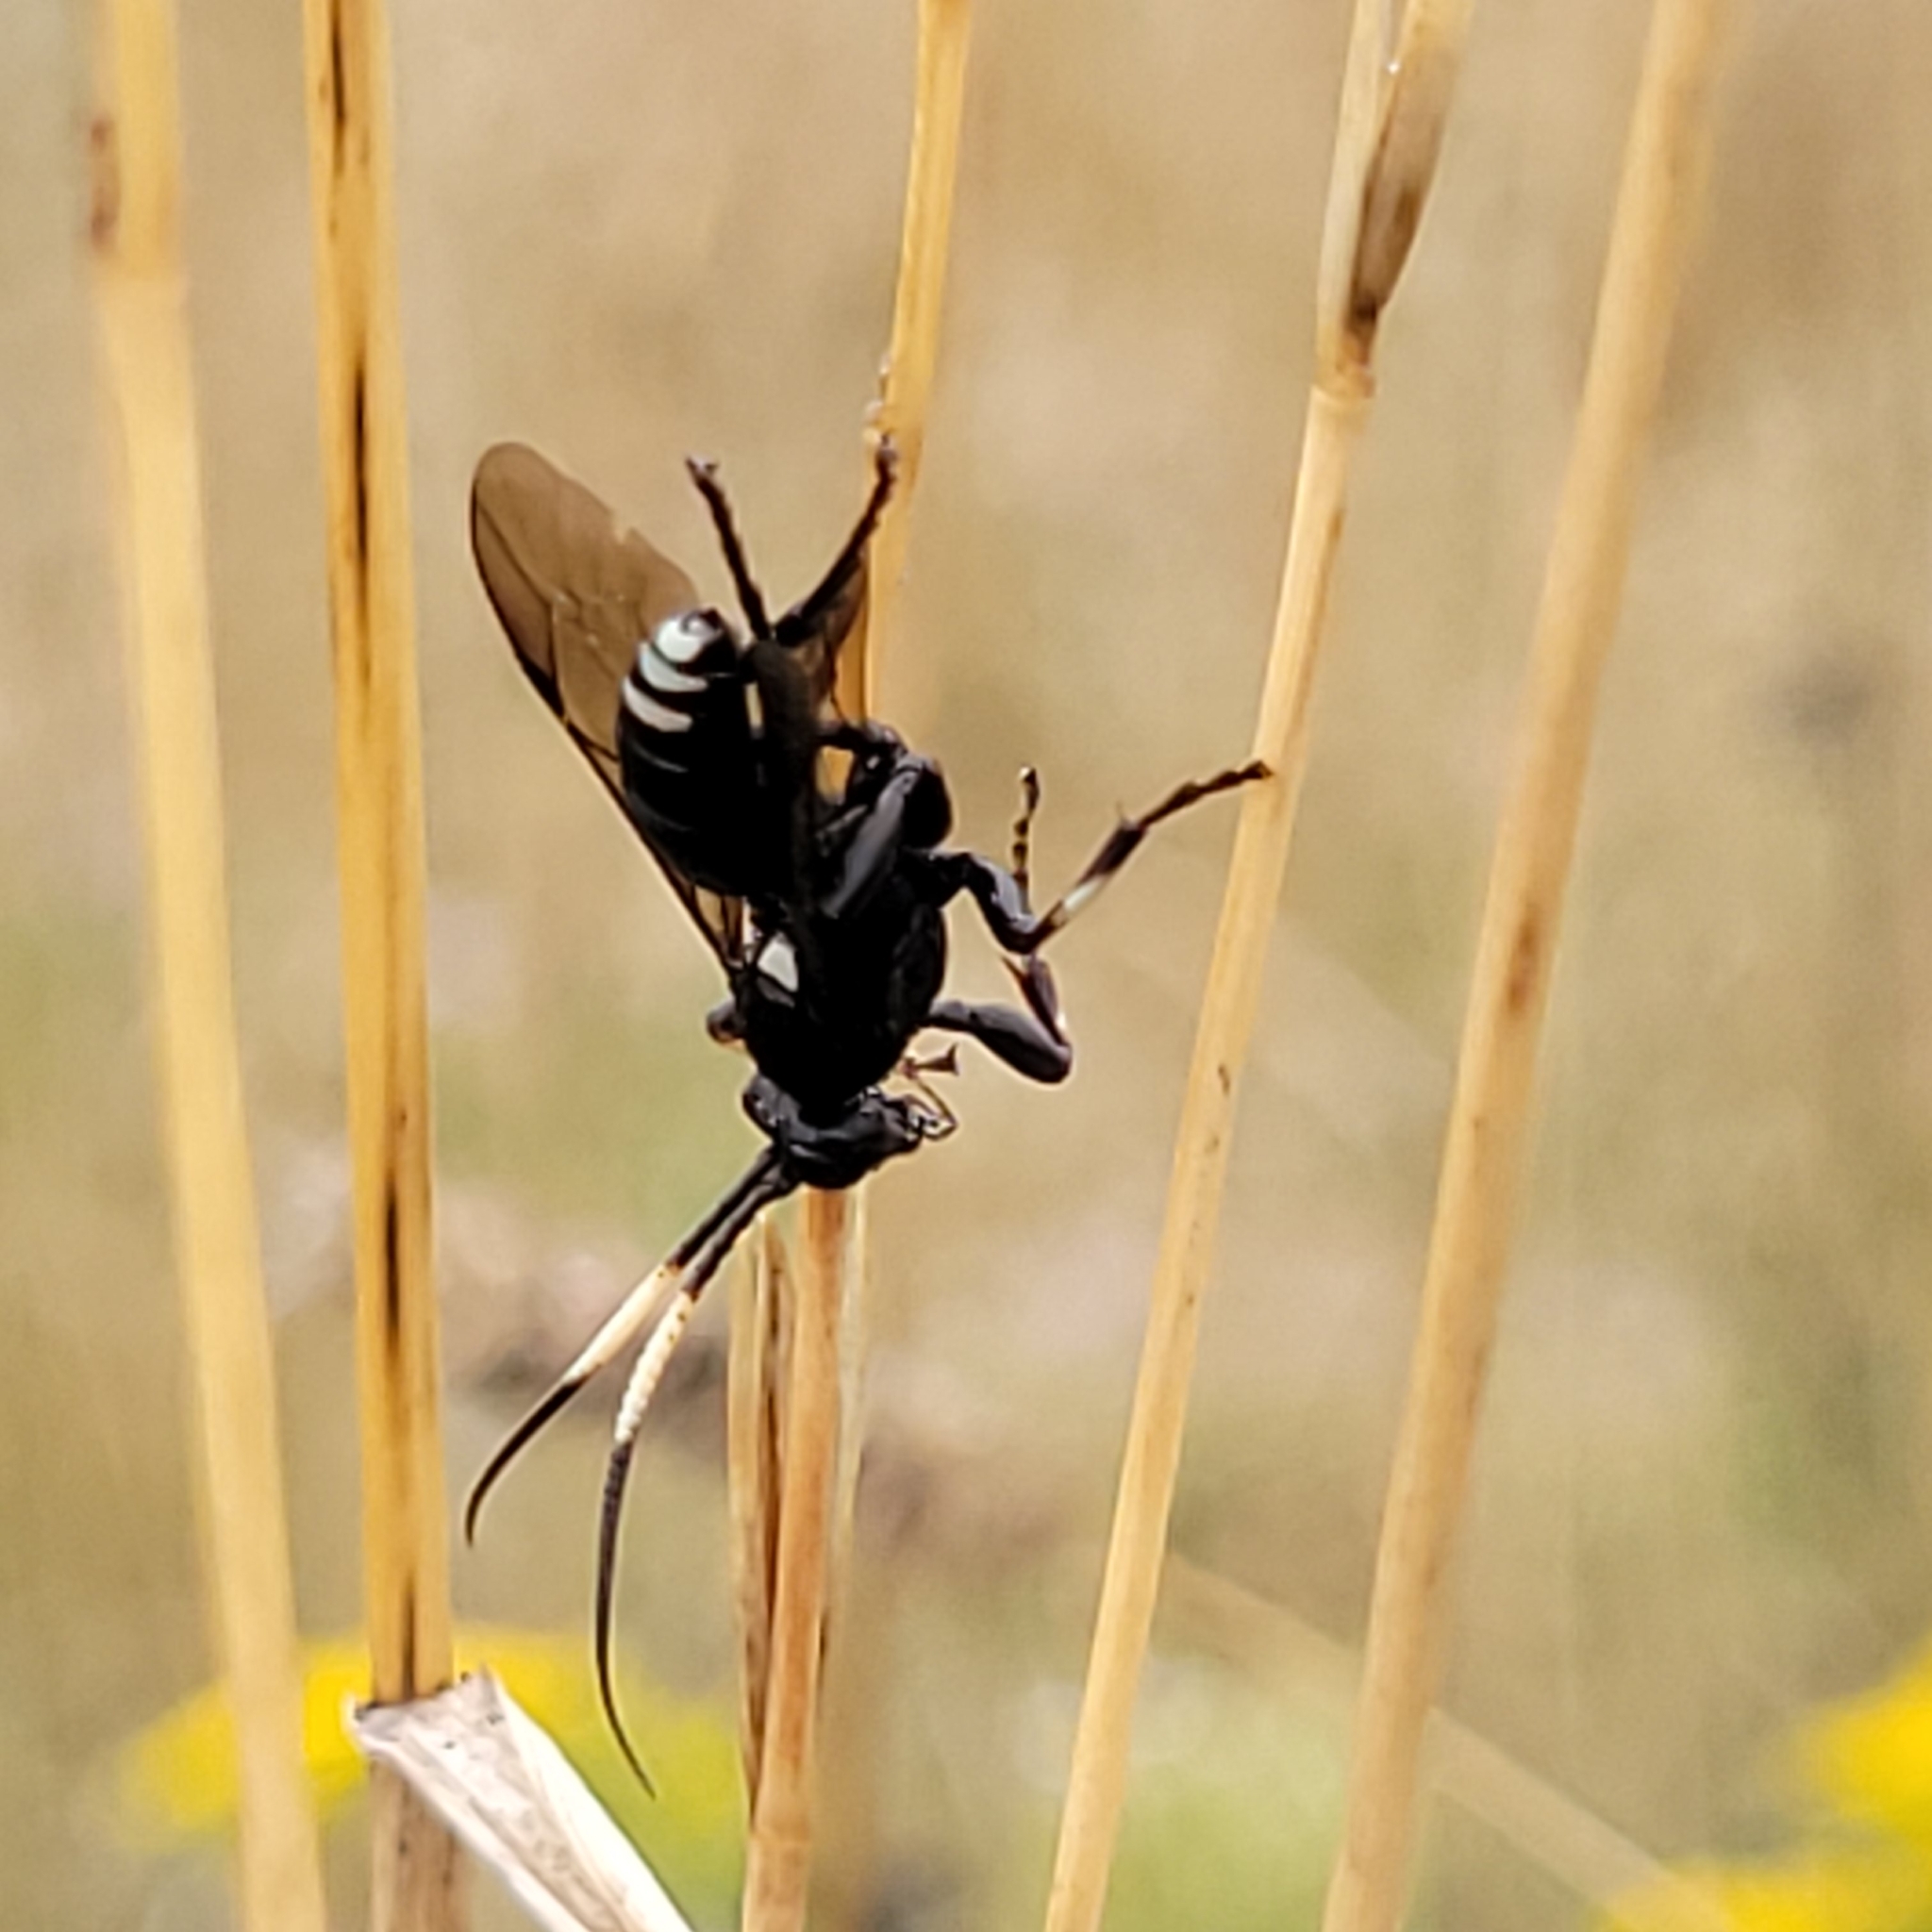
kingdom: Animalia
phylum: Arthropoda
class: Insecta
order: Hymenoptera
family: Ichneumonidae
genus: Eutanyacra
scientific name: Eutanyacra improvisa
